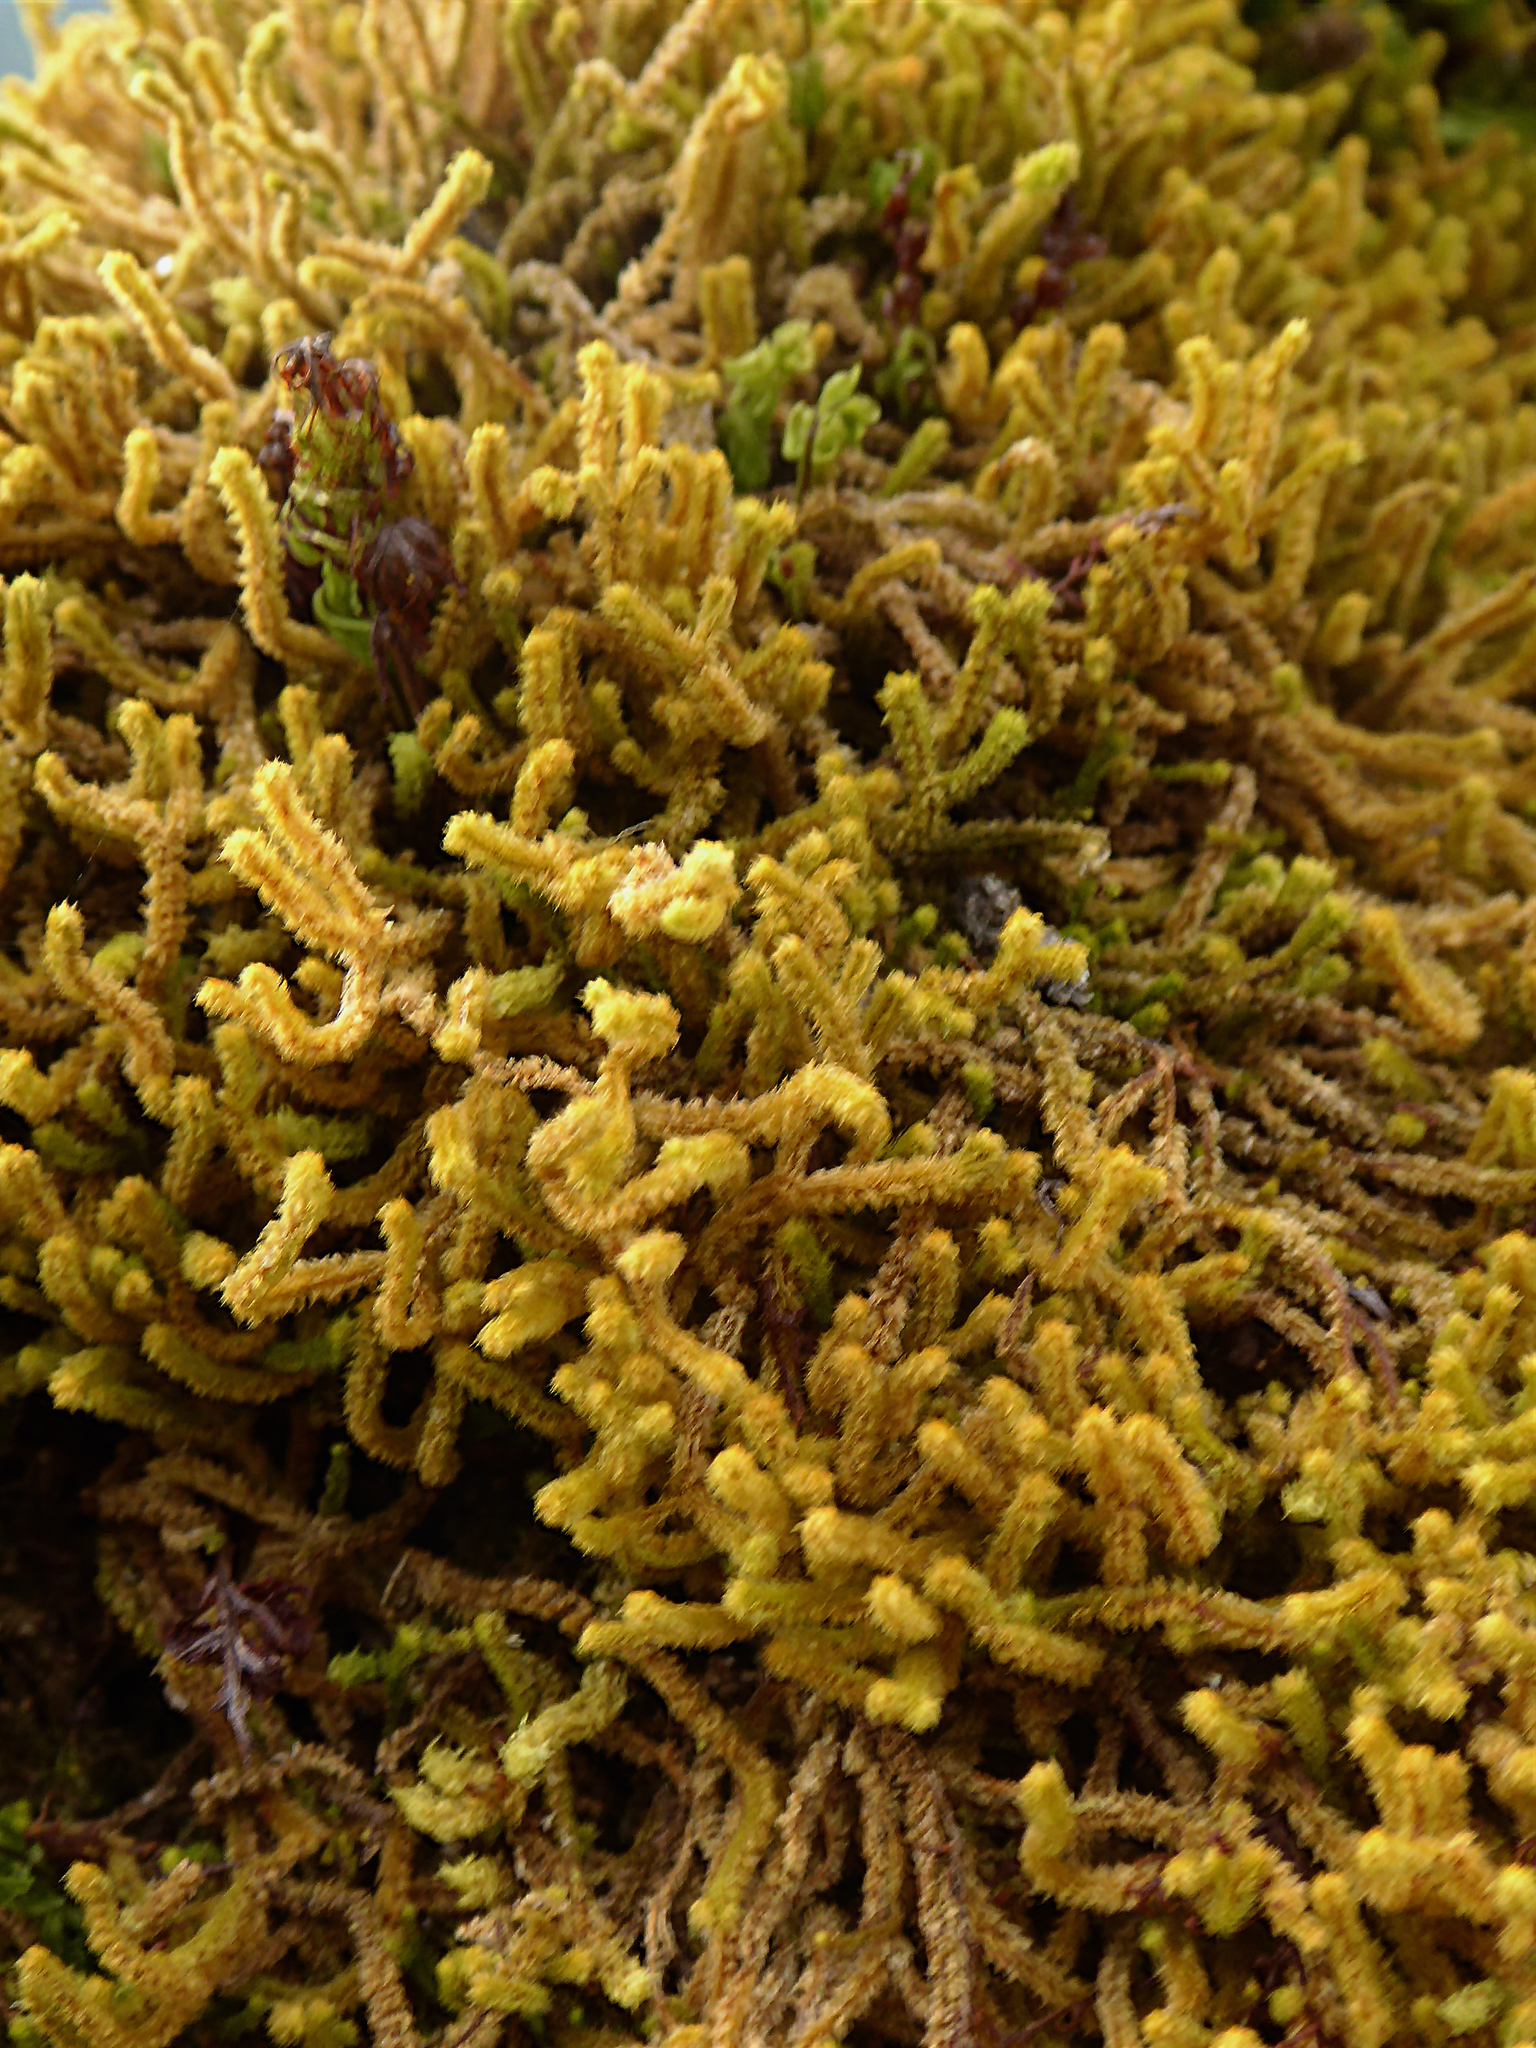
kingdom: Plantae
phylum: Marchantiophyta
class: Jungermanniopsida
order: Jungermanniales
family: Anastrophyllaceae
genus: Plicanthus
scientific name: Plicanthus hirtellus
